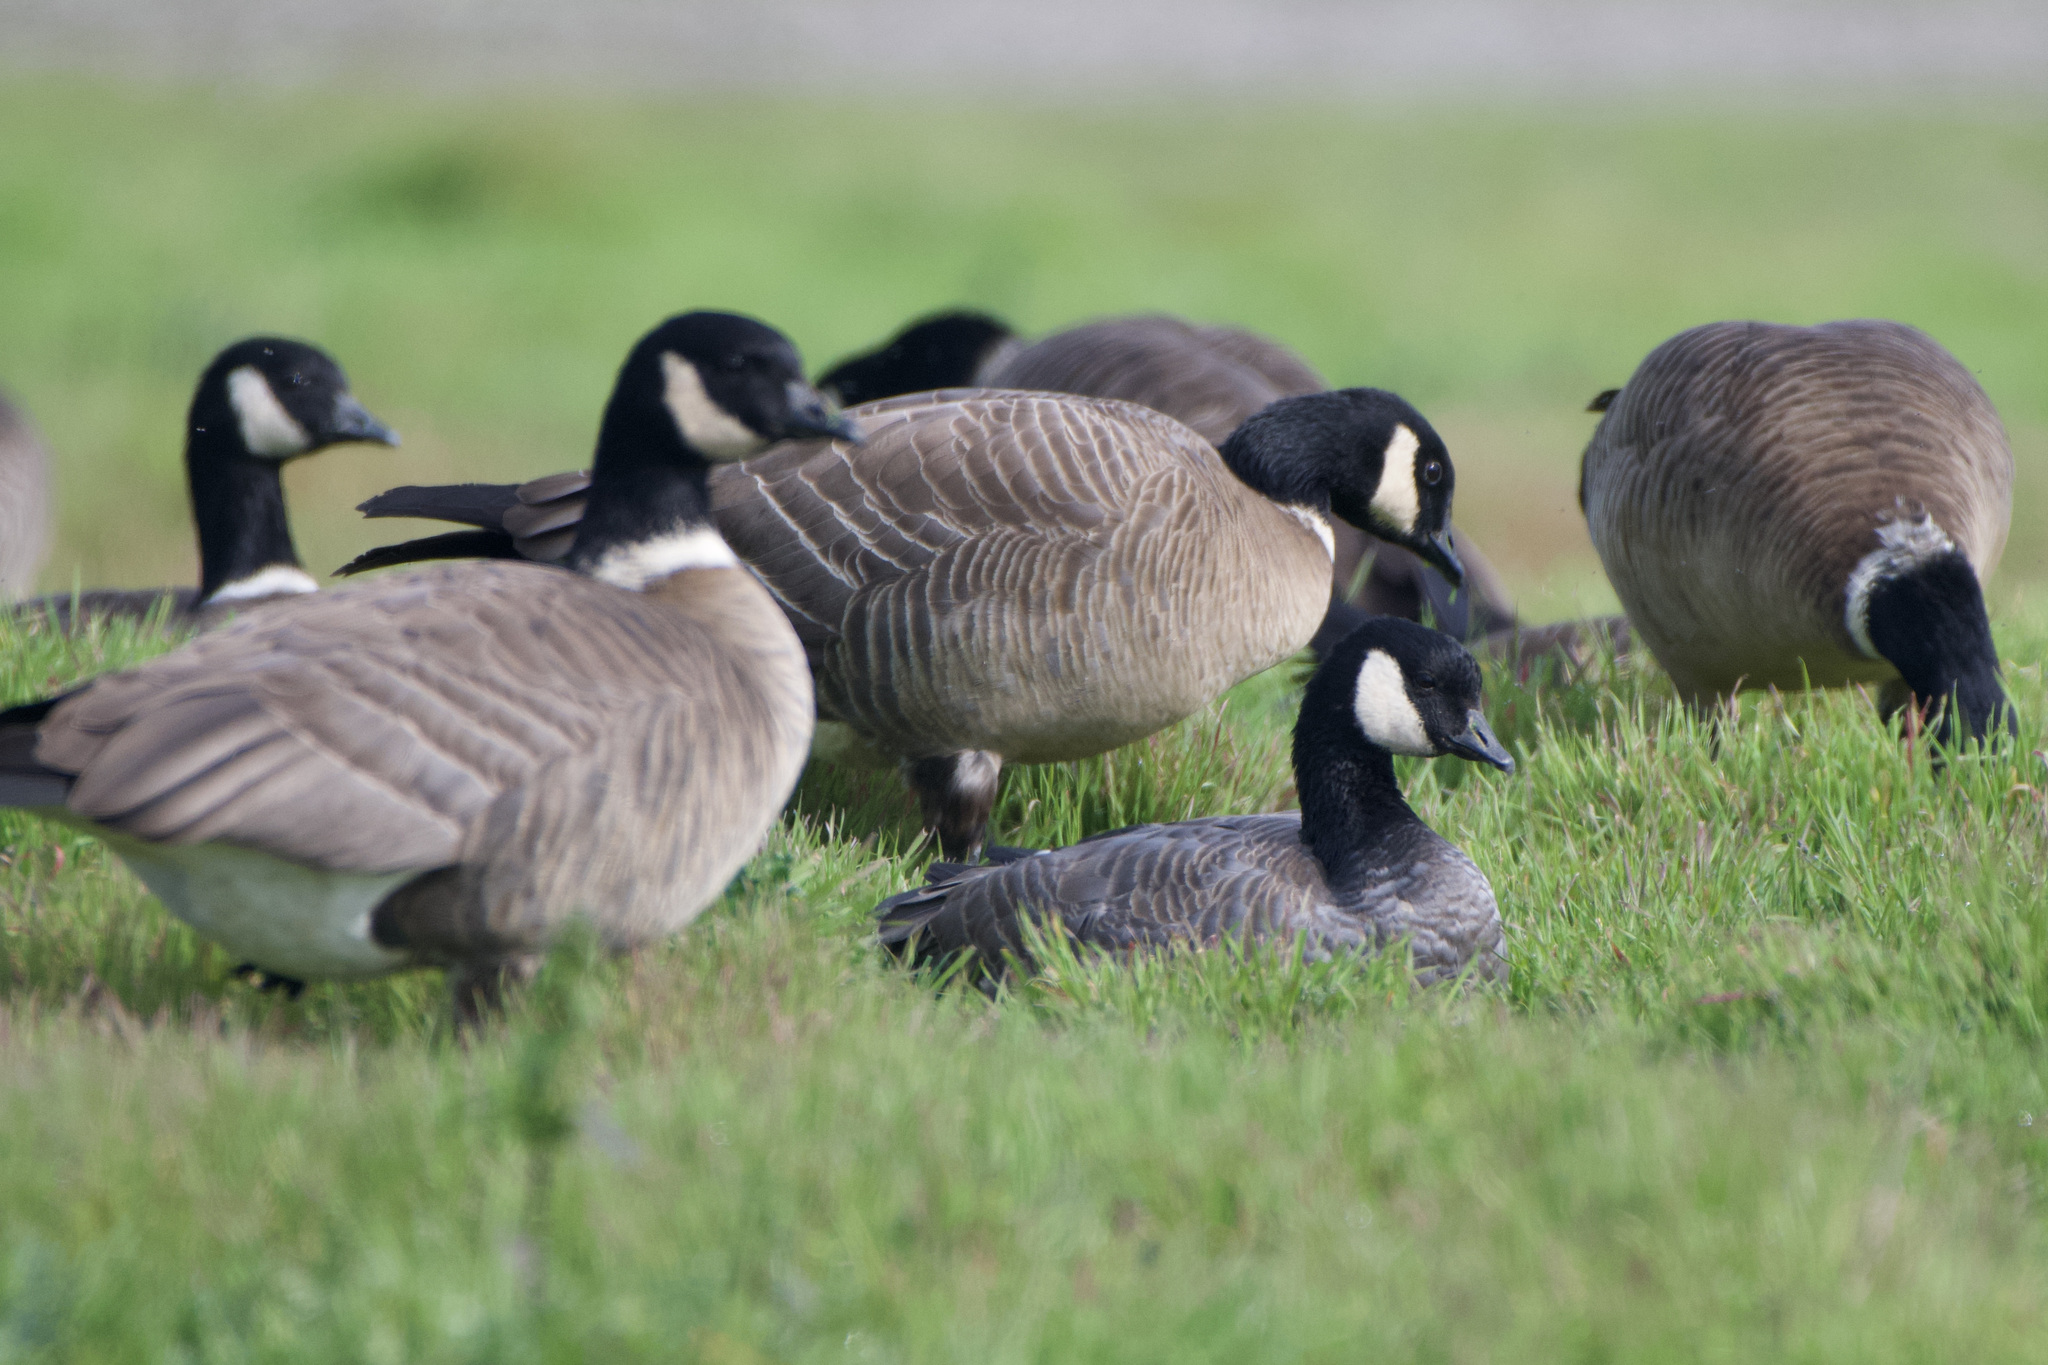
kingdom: Animalia
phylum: Chordata
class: Aves
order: Anseriformes
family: Anatidae
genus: Branta
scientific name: Branta hutchinsii
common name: Cackling goose
